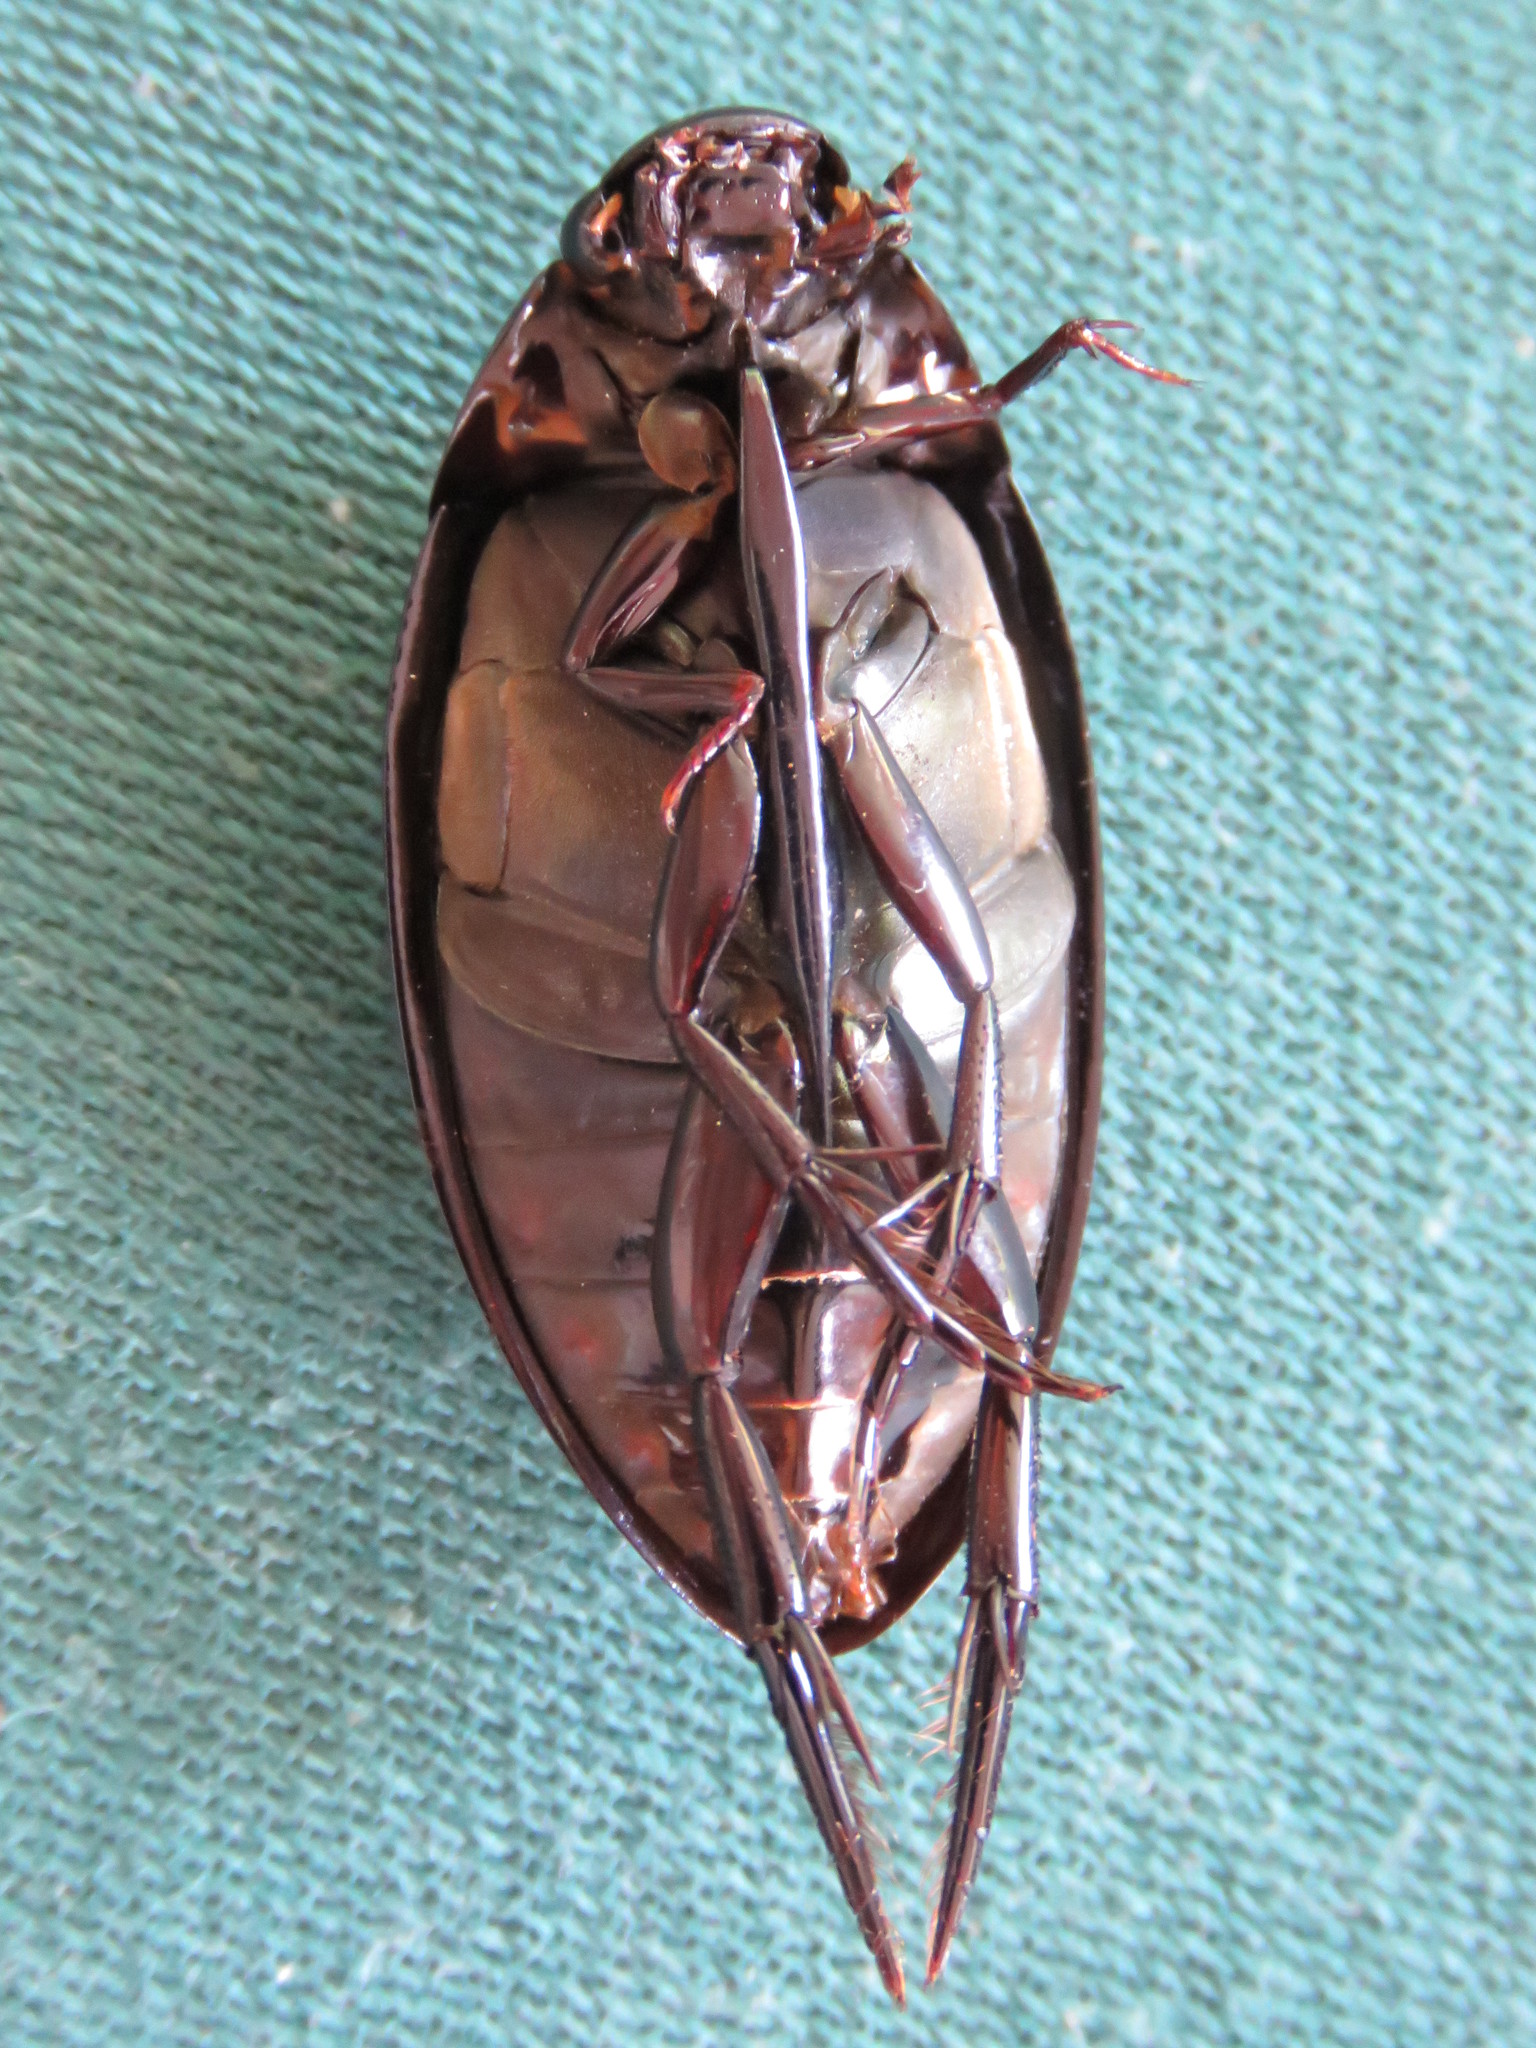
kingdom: Animalia
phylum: Arthropoda
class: Insecta
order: Coleoptera
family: Hydrophilidae
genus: Hydrophilus
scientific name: Hydrophilus ensifer
